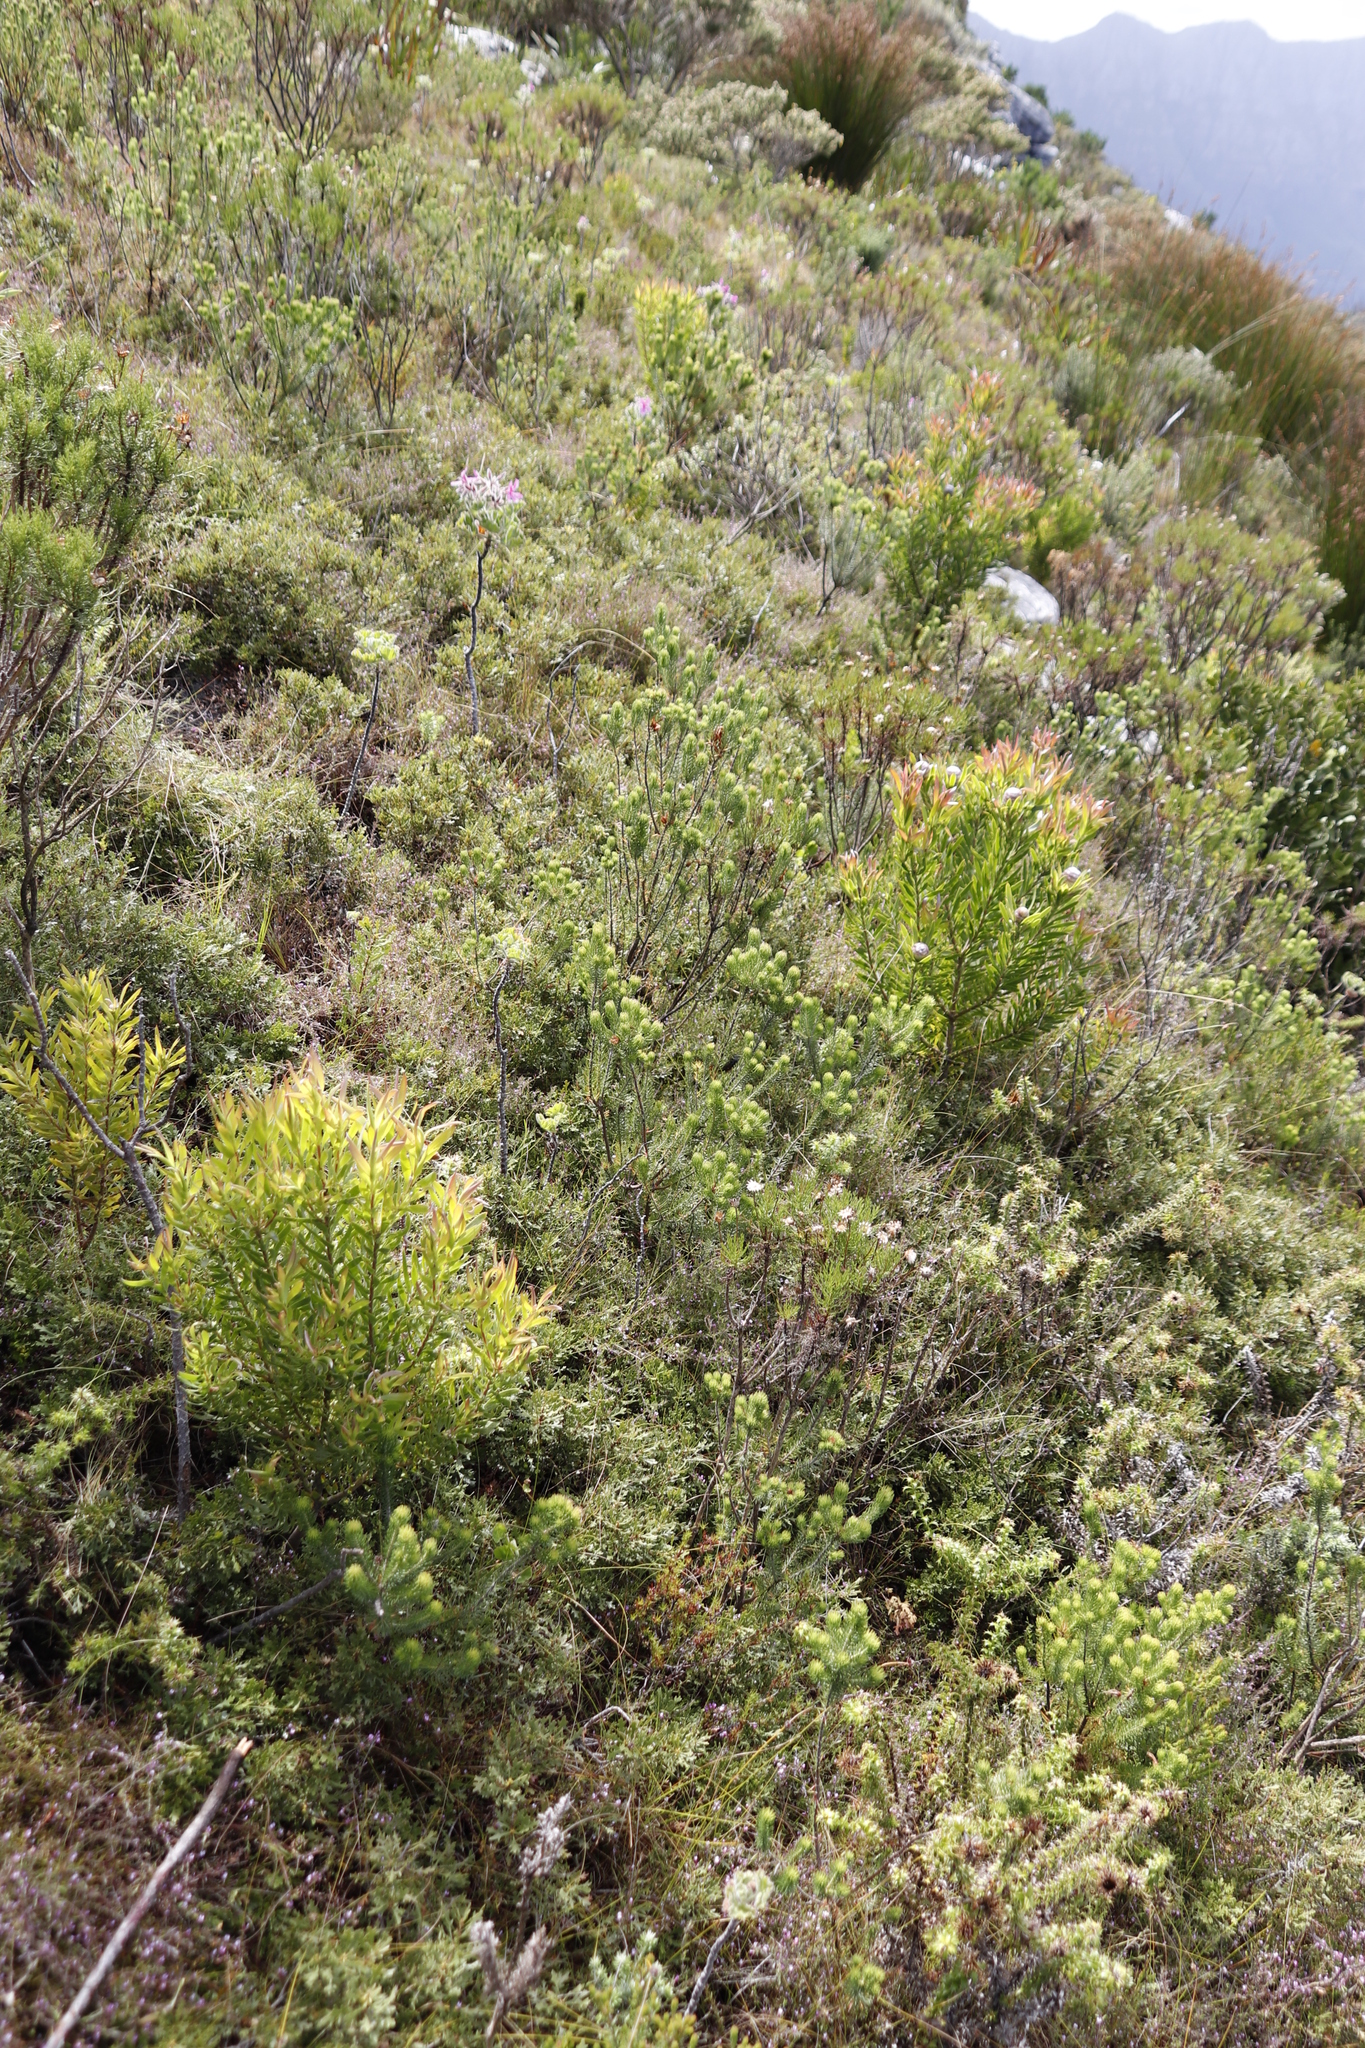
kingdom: Plantae
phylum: Tracheophyta
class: Magnoliopsida
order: Proteales
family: Proteaceae
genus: Leucadendron
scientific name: Leucadendron xanthoconus
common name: Sickle-leaf conebush
